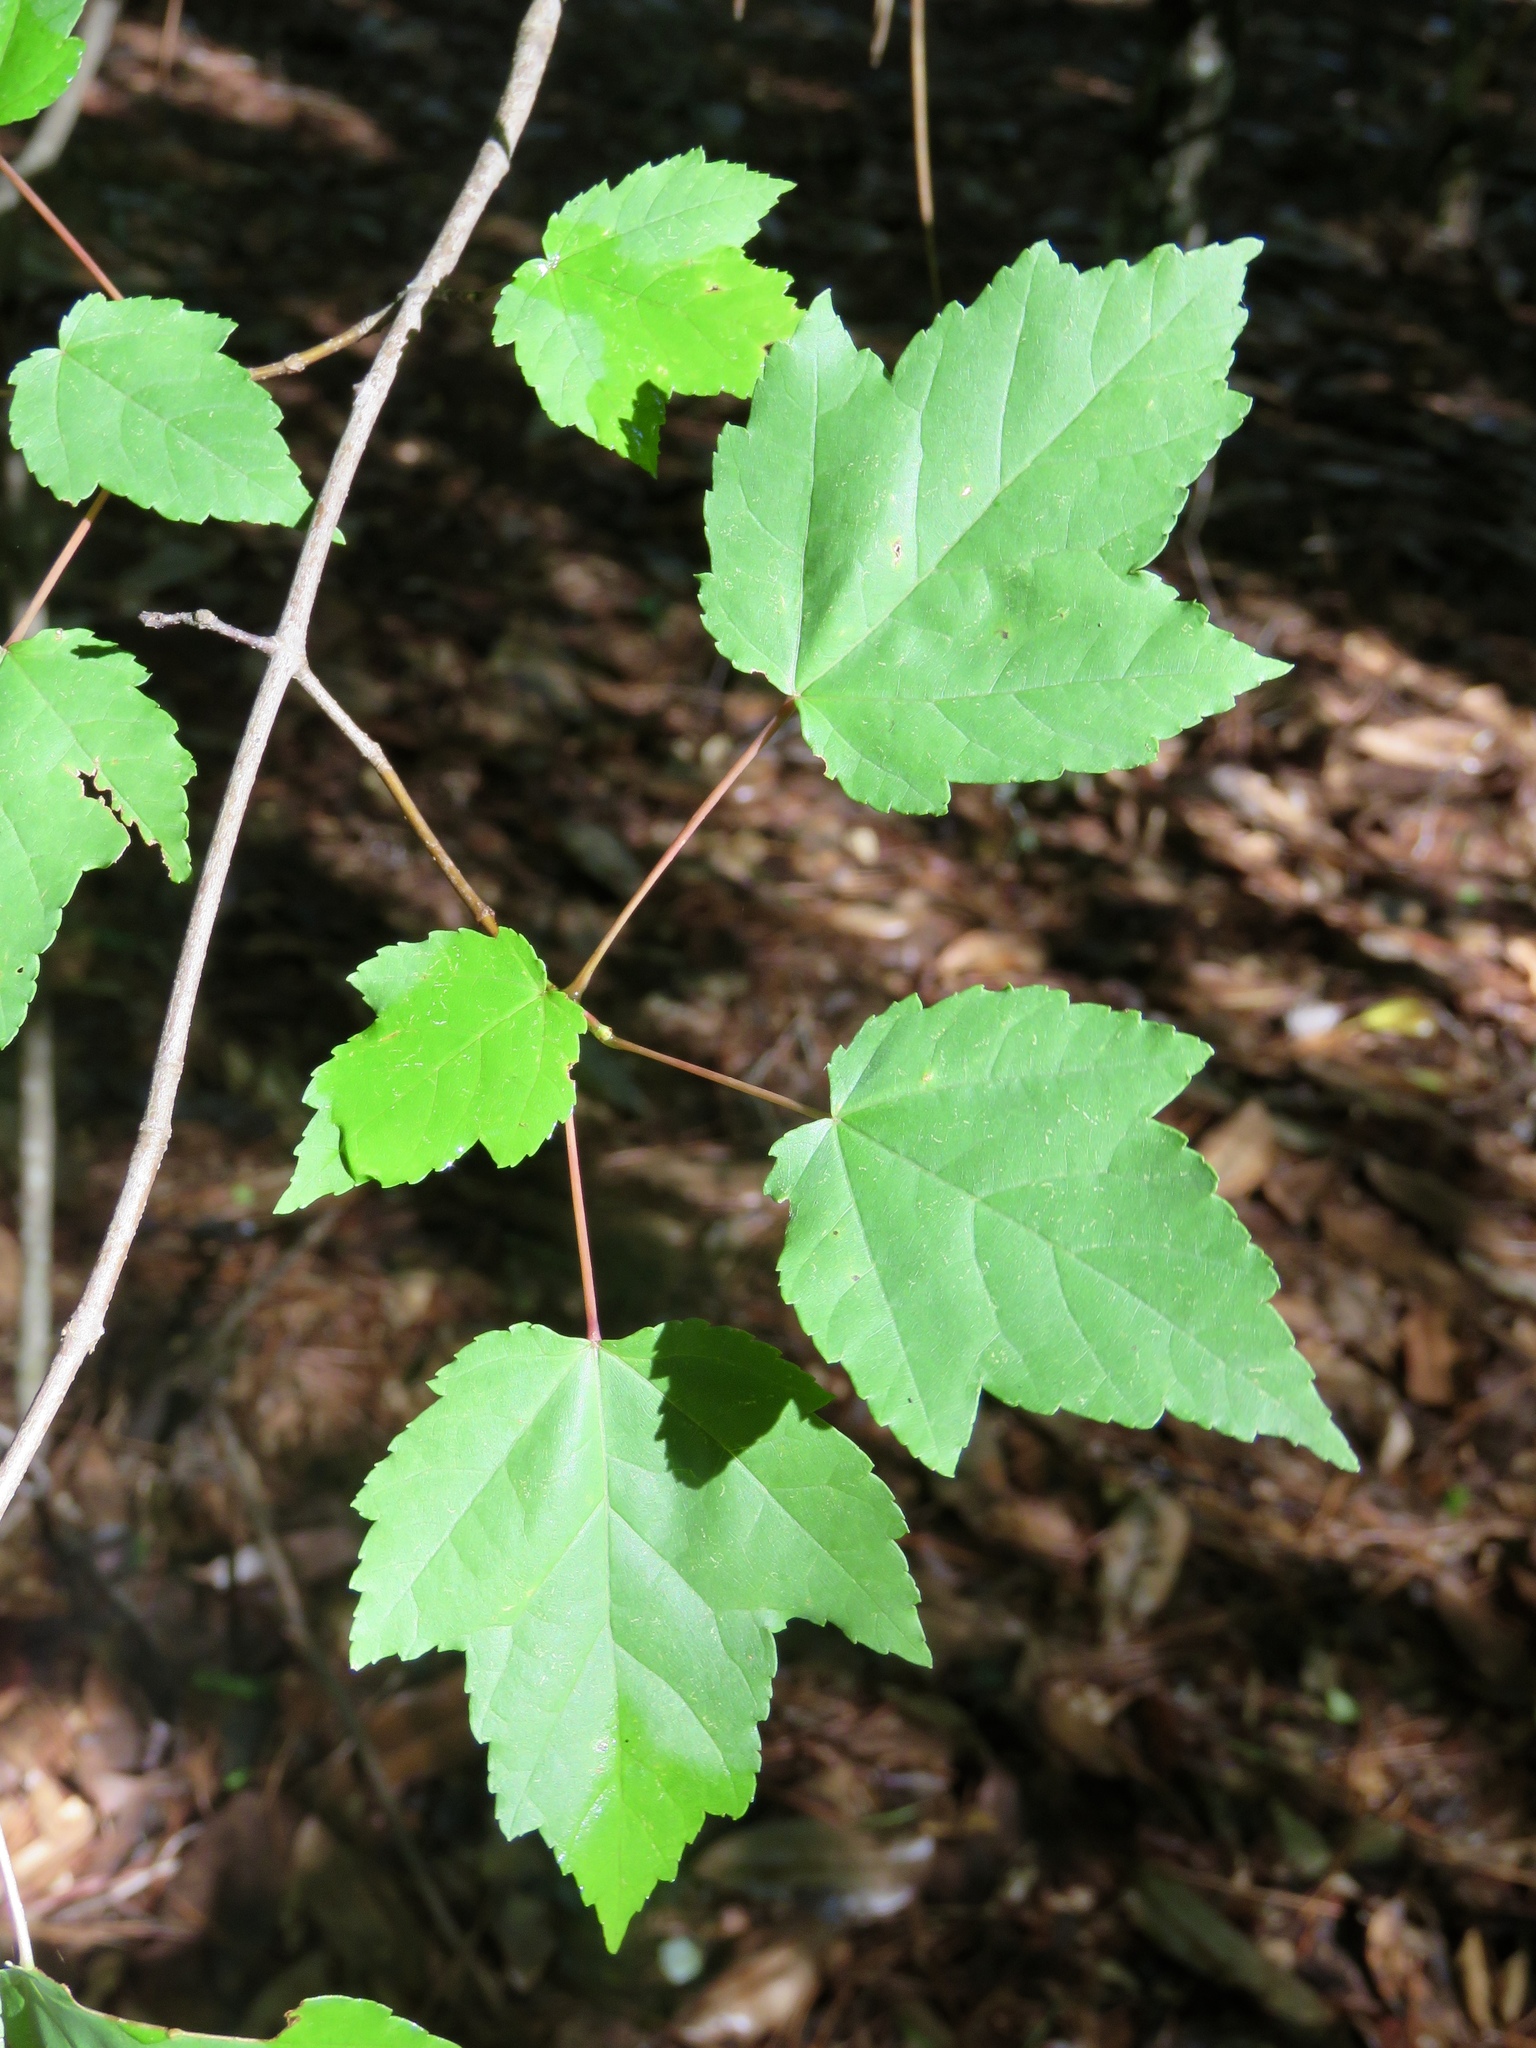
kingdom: Plantae
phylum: Tracheophyta
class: Magnoliopsida
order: Sapindales
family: Sapindaceae
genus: Acer
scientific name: Acer rubrum
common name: Red maple
